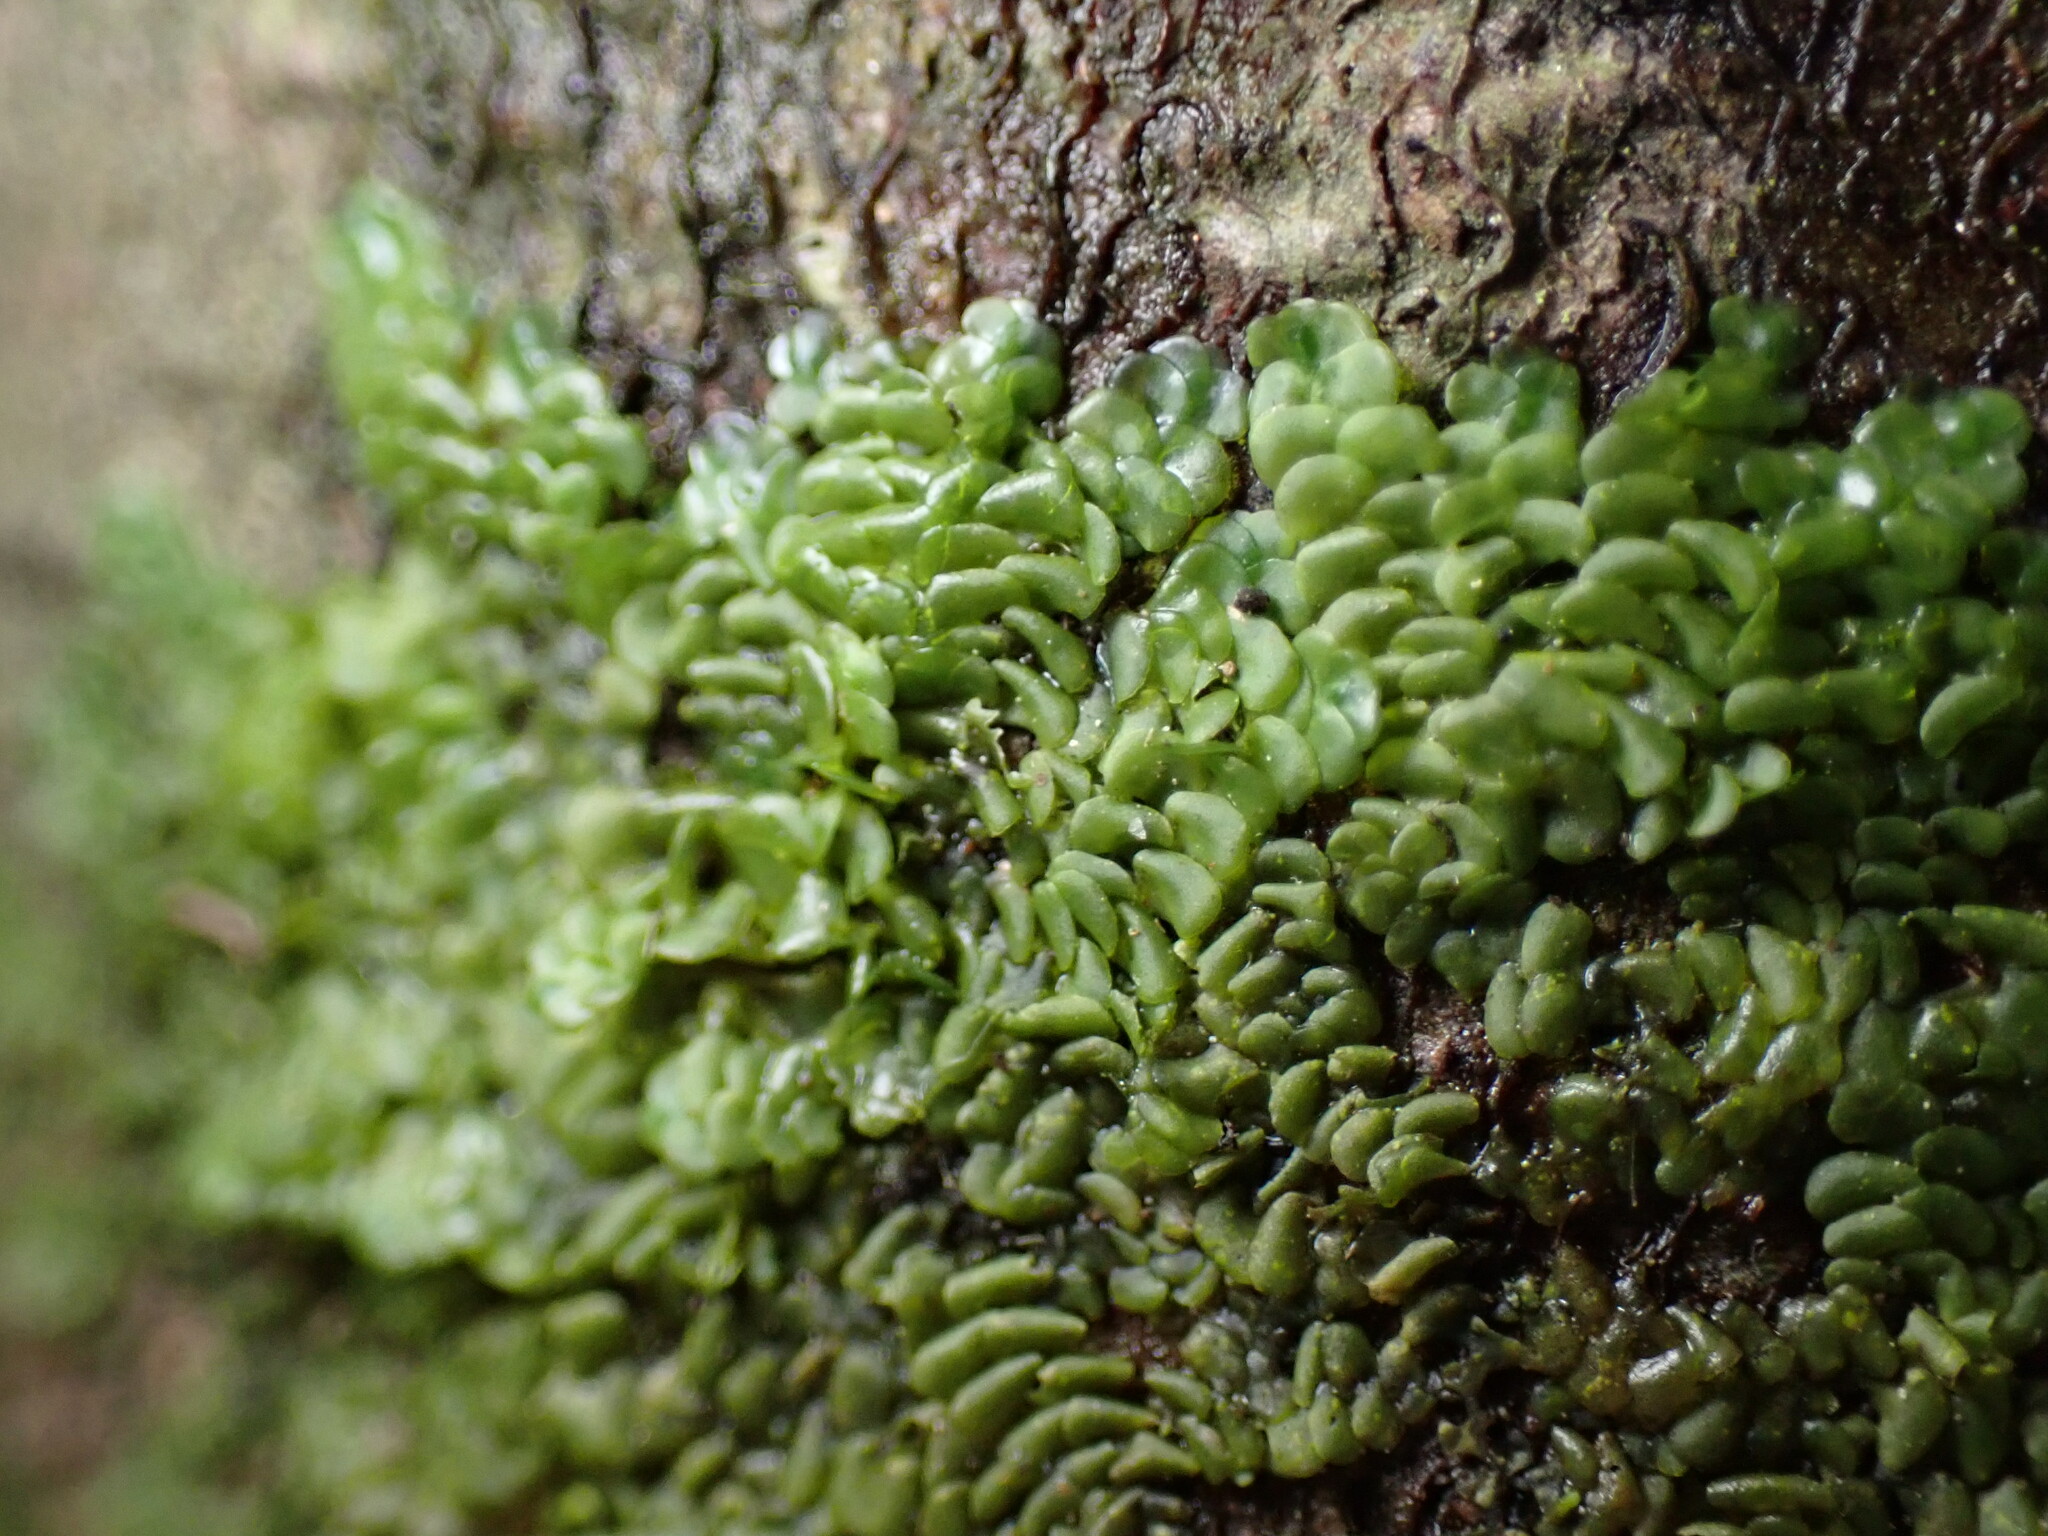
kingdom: Plantae
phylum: Marchantiophyta
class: Jungermanniopsida
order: Porellales
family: Radulaceae
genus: Radula
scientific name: Radula complanata
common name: Flat-leaved scalewort
